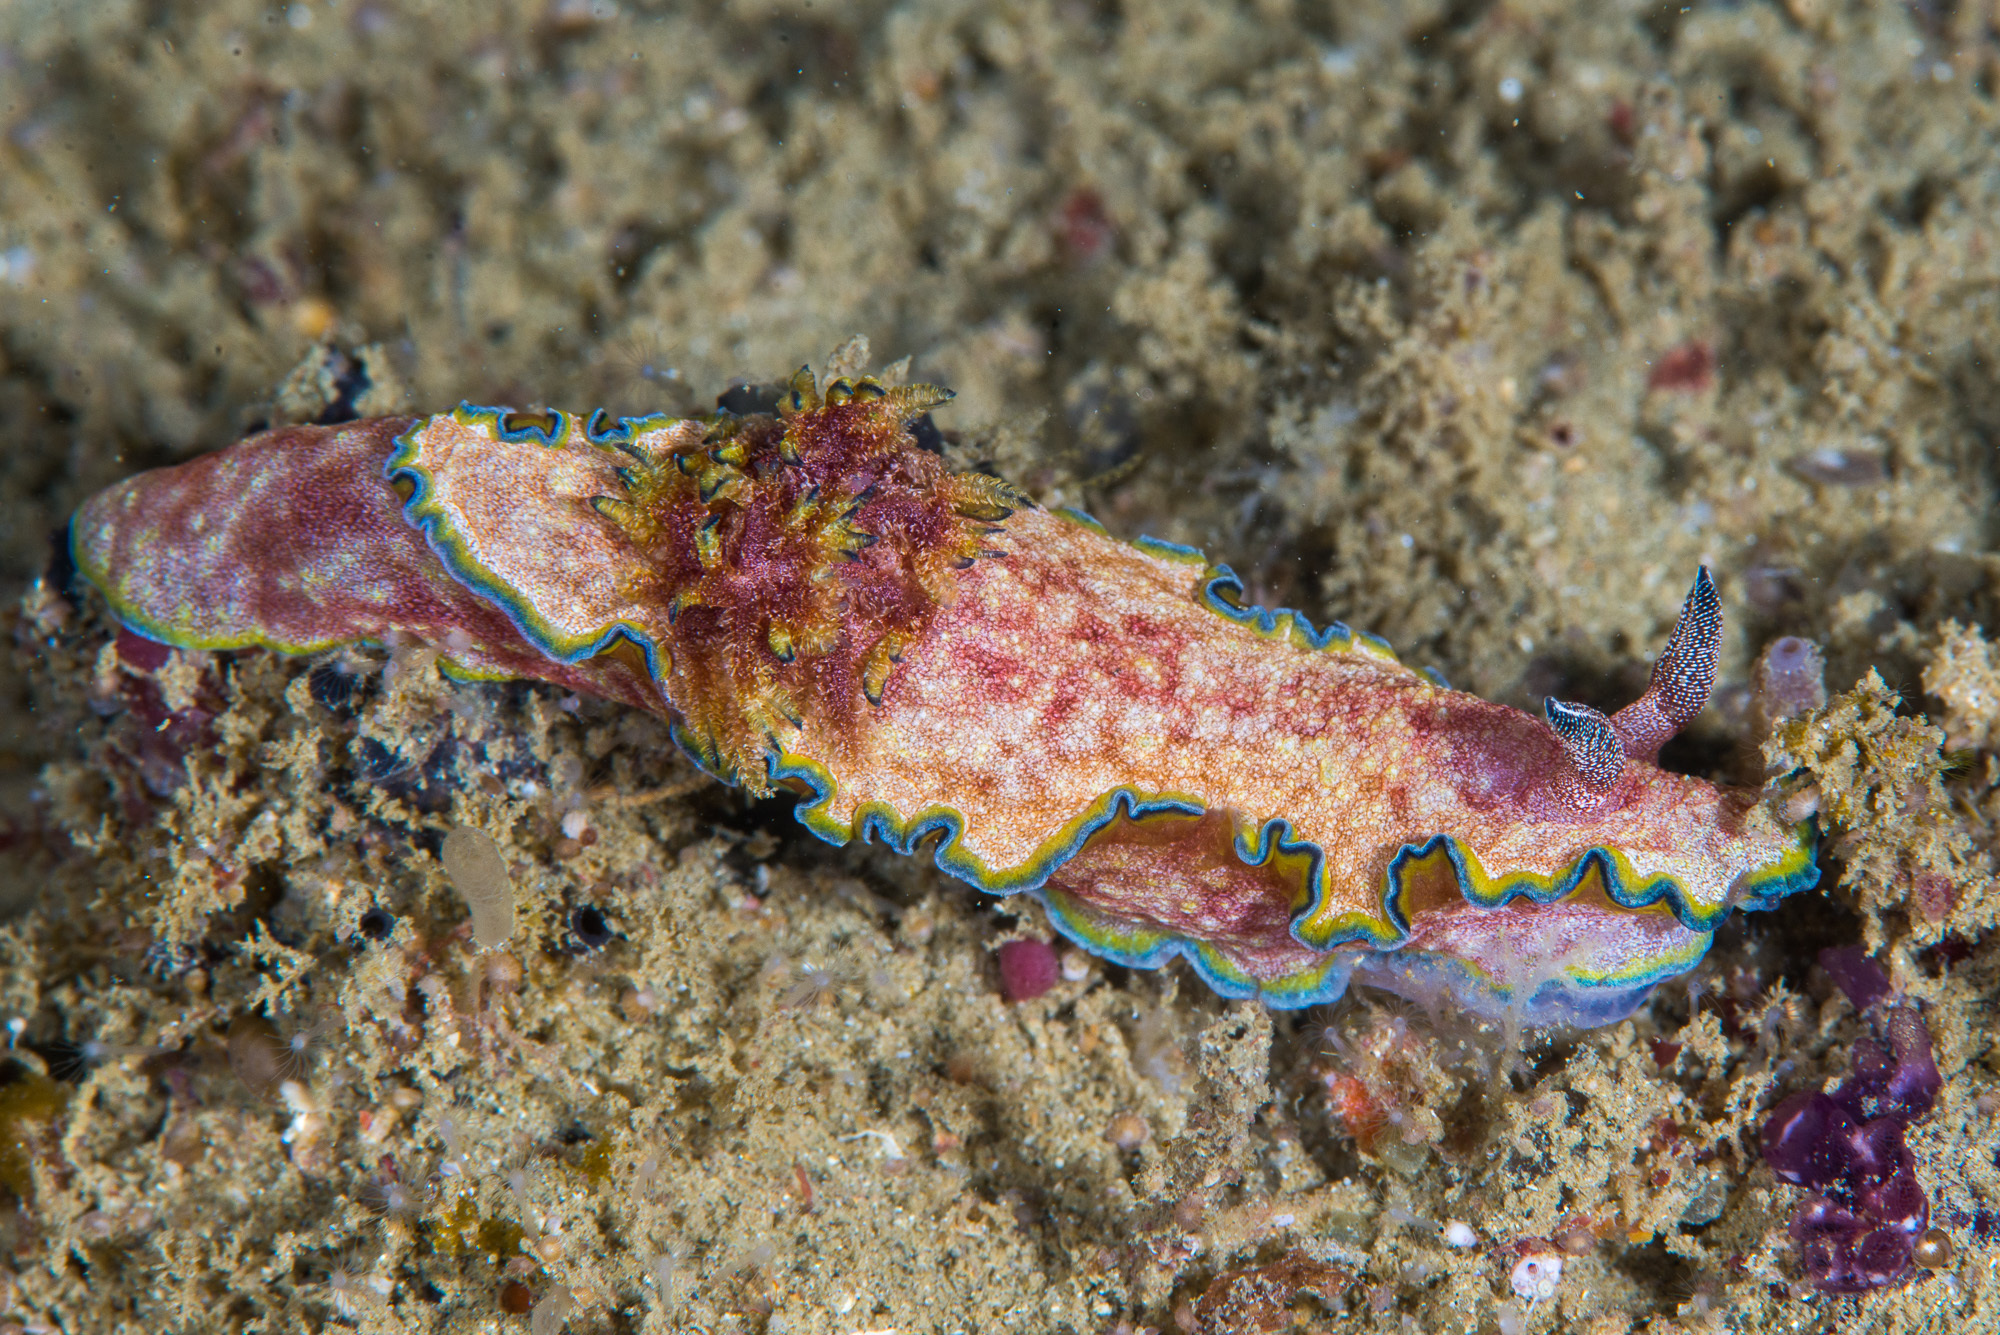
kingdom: Animalia
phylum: Mollusca
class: Gastropoda
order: Nudibranchia
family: Chromodorididae
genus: Glossodoris
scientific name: Glossodoris acosti
